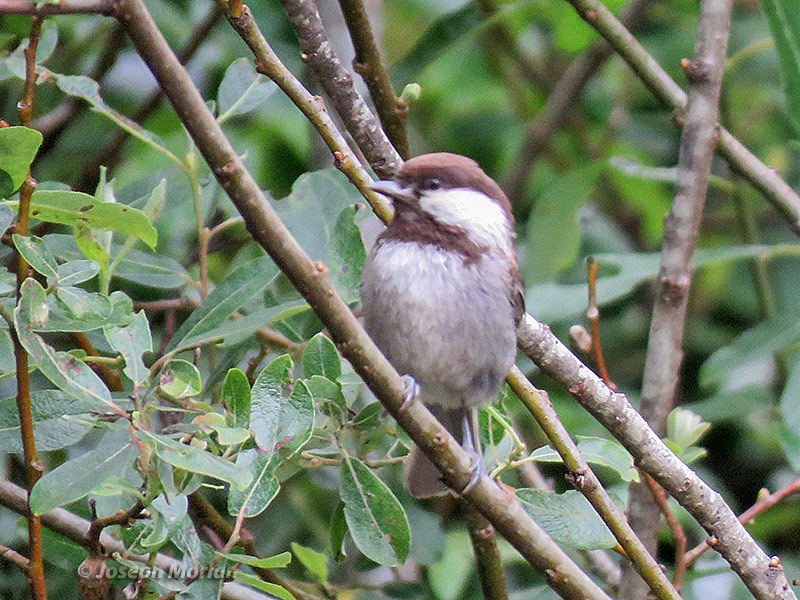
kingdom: Animalia
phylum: Chordata
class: Aves
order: Passeriformes
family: Paridae
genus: Poecile
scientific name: Poecile rufescens
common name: Chestnut-backed chickadee
